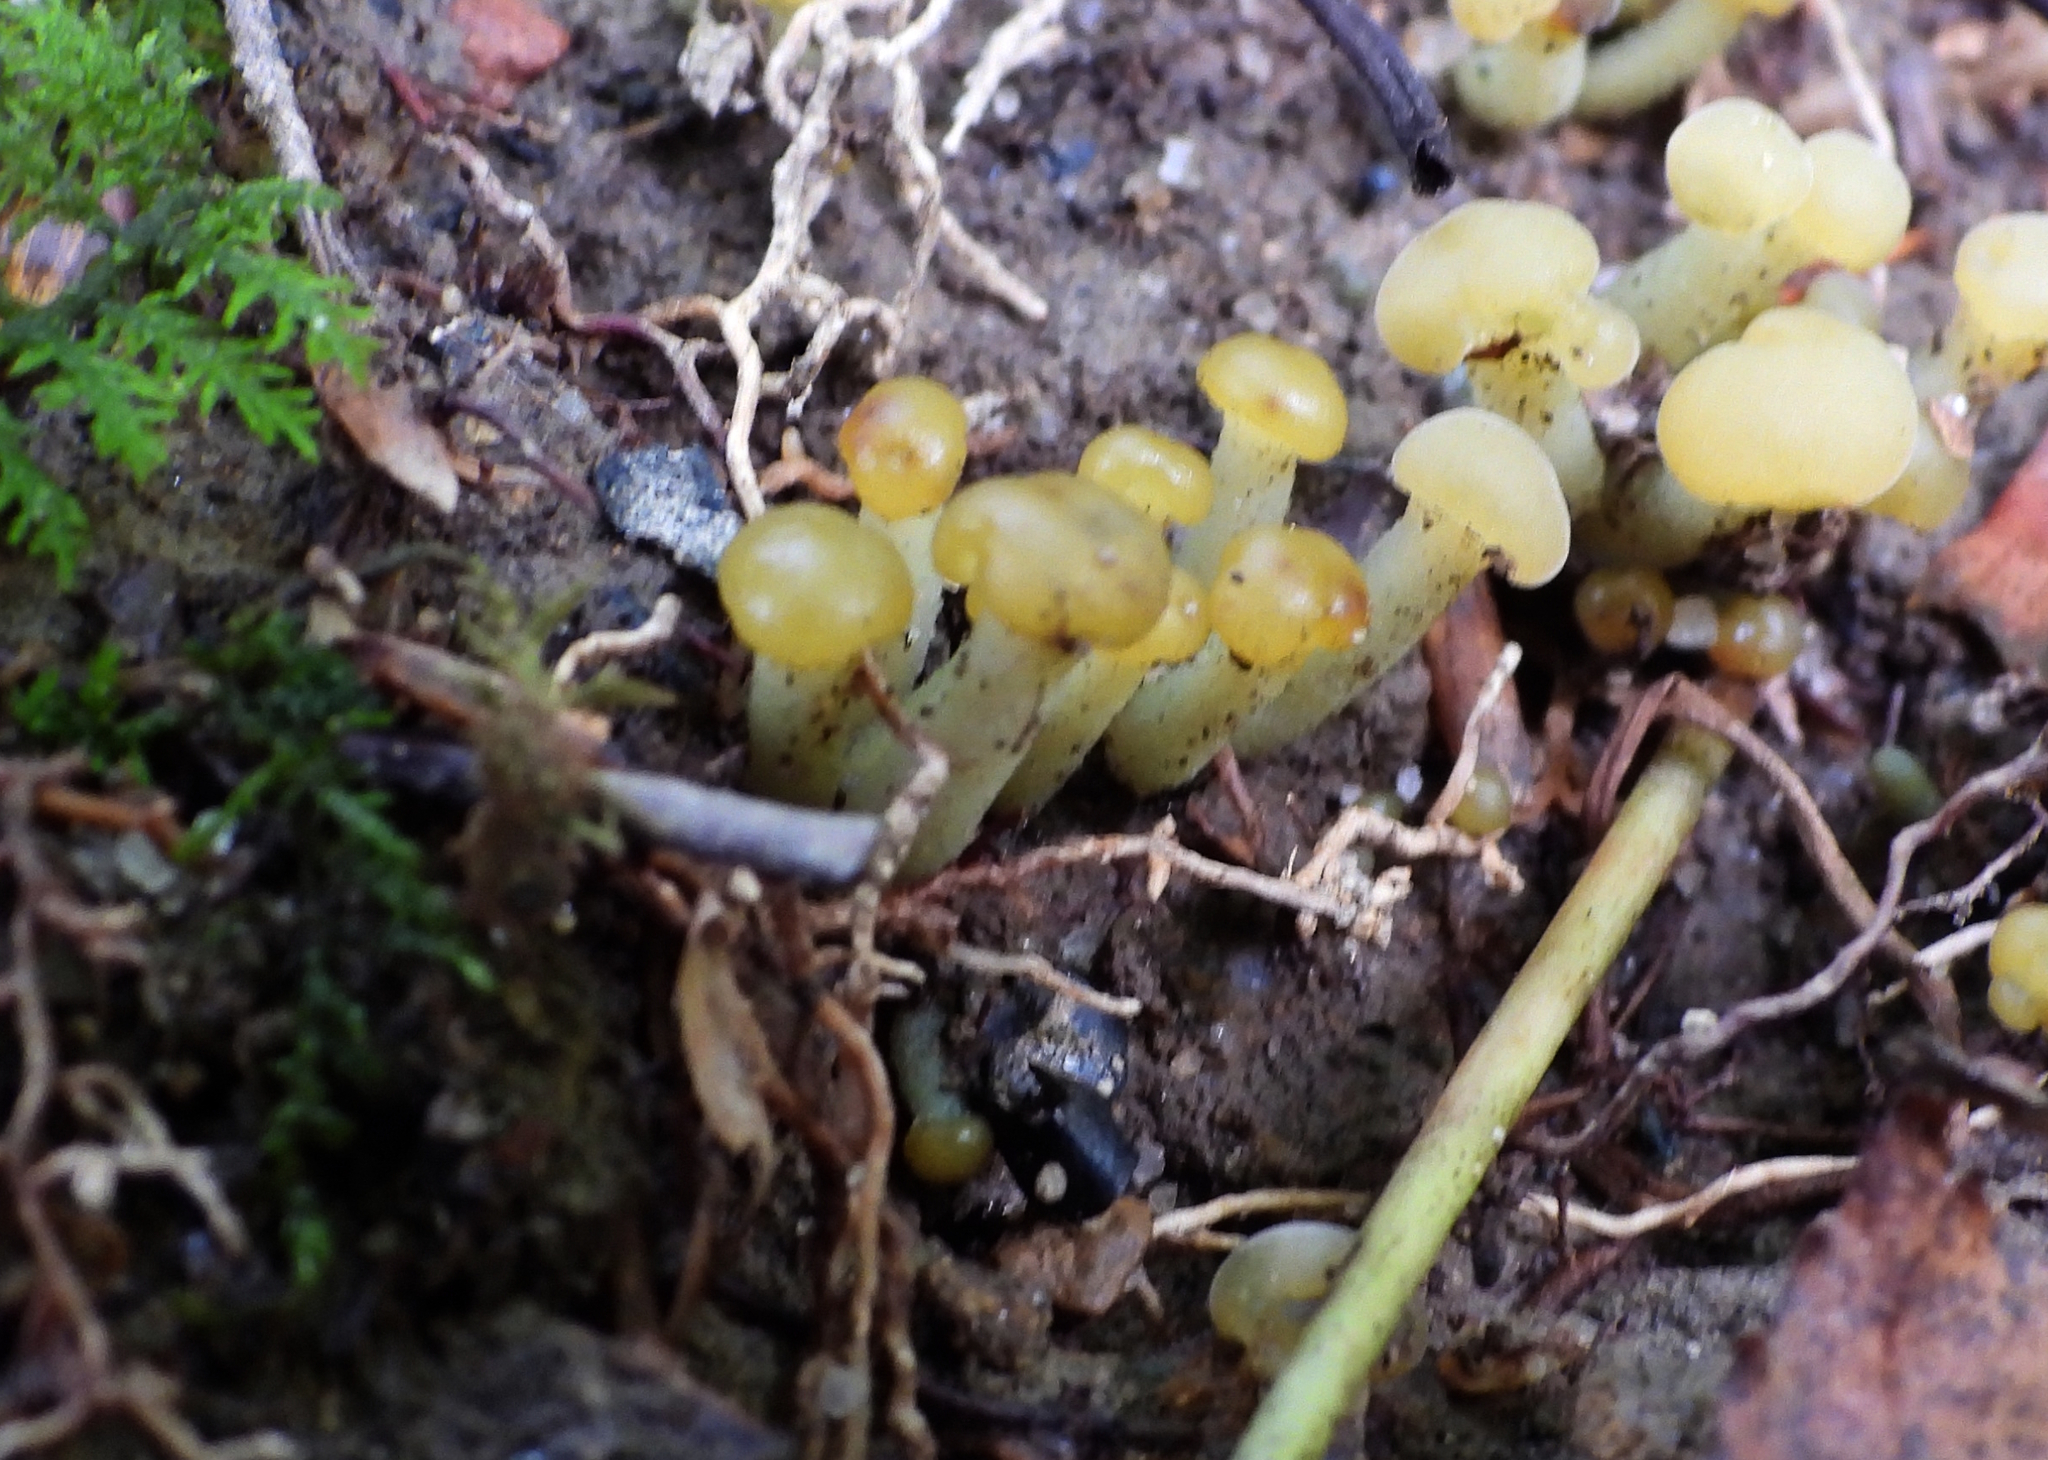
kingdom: Fungi
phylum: Ascomycota
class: Leotiomycetes
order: Leotiales
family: Leotiaceae
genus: Leotia
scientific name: Leotia lubrica
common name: Jellybaby
